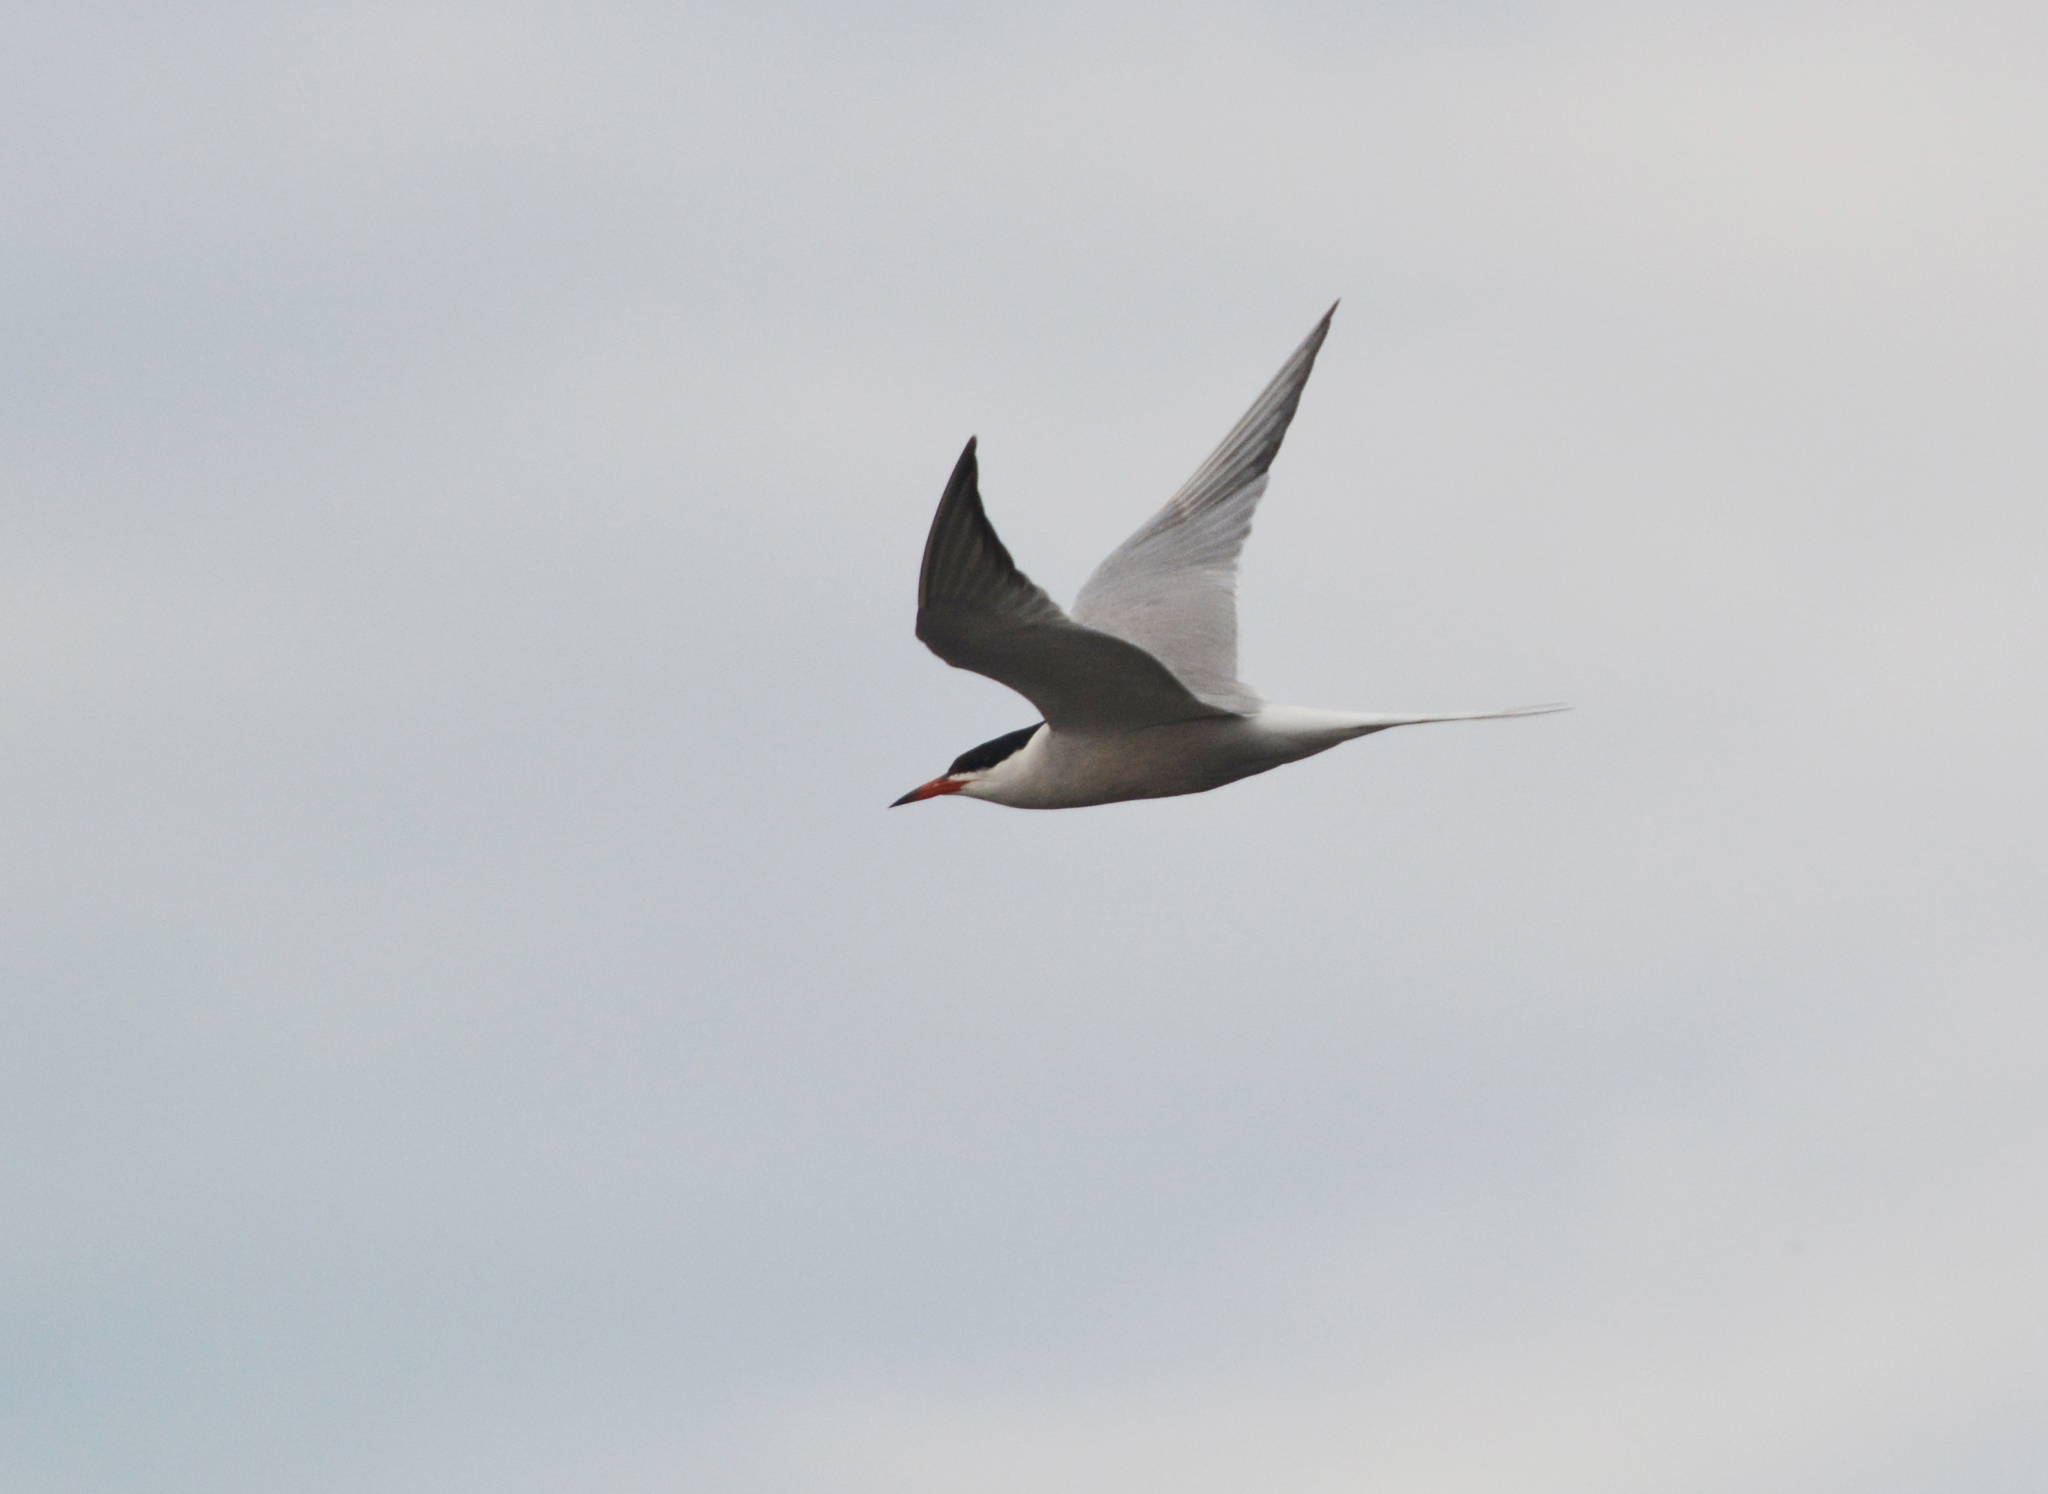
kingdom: Animalia
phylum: Chordata
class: Aves
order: Charadriiformes
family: Laridae
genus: Sterna
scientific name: Sterna hirundo
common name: Common tern
